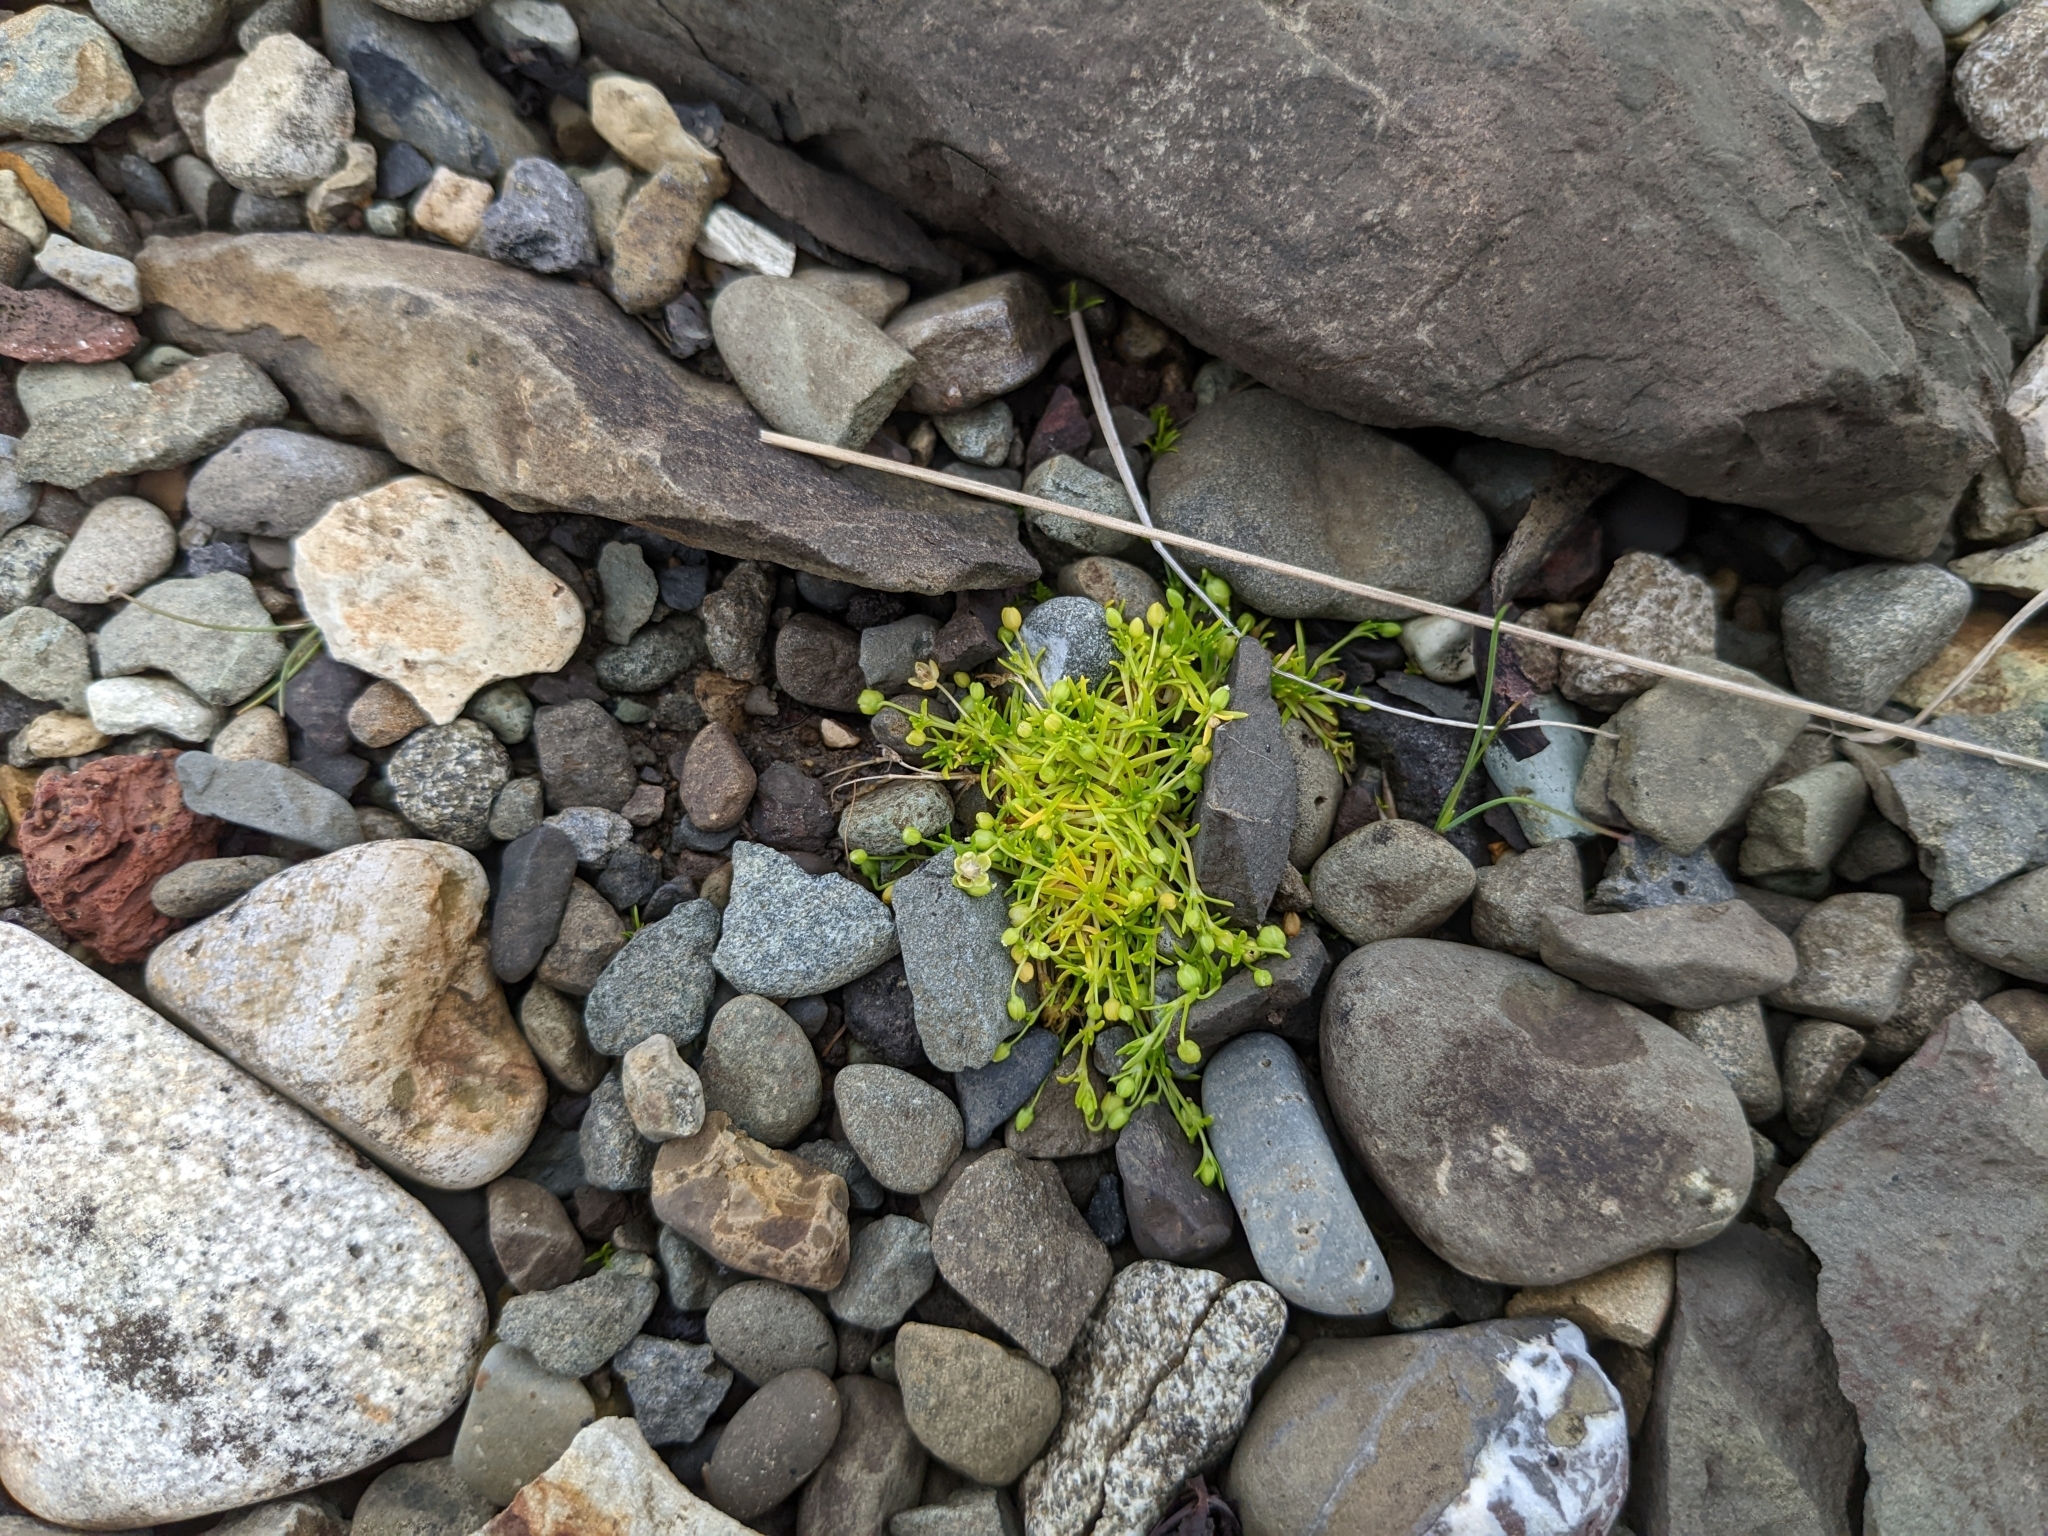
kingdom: Plantae
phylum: Tracheophyta
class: Magnoliopsida
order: Caryophyllales
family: Caryophyllaceae
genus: Sagina
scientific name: Sagina procumbens
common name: Procumbent pearlwort
